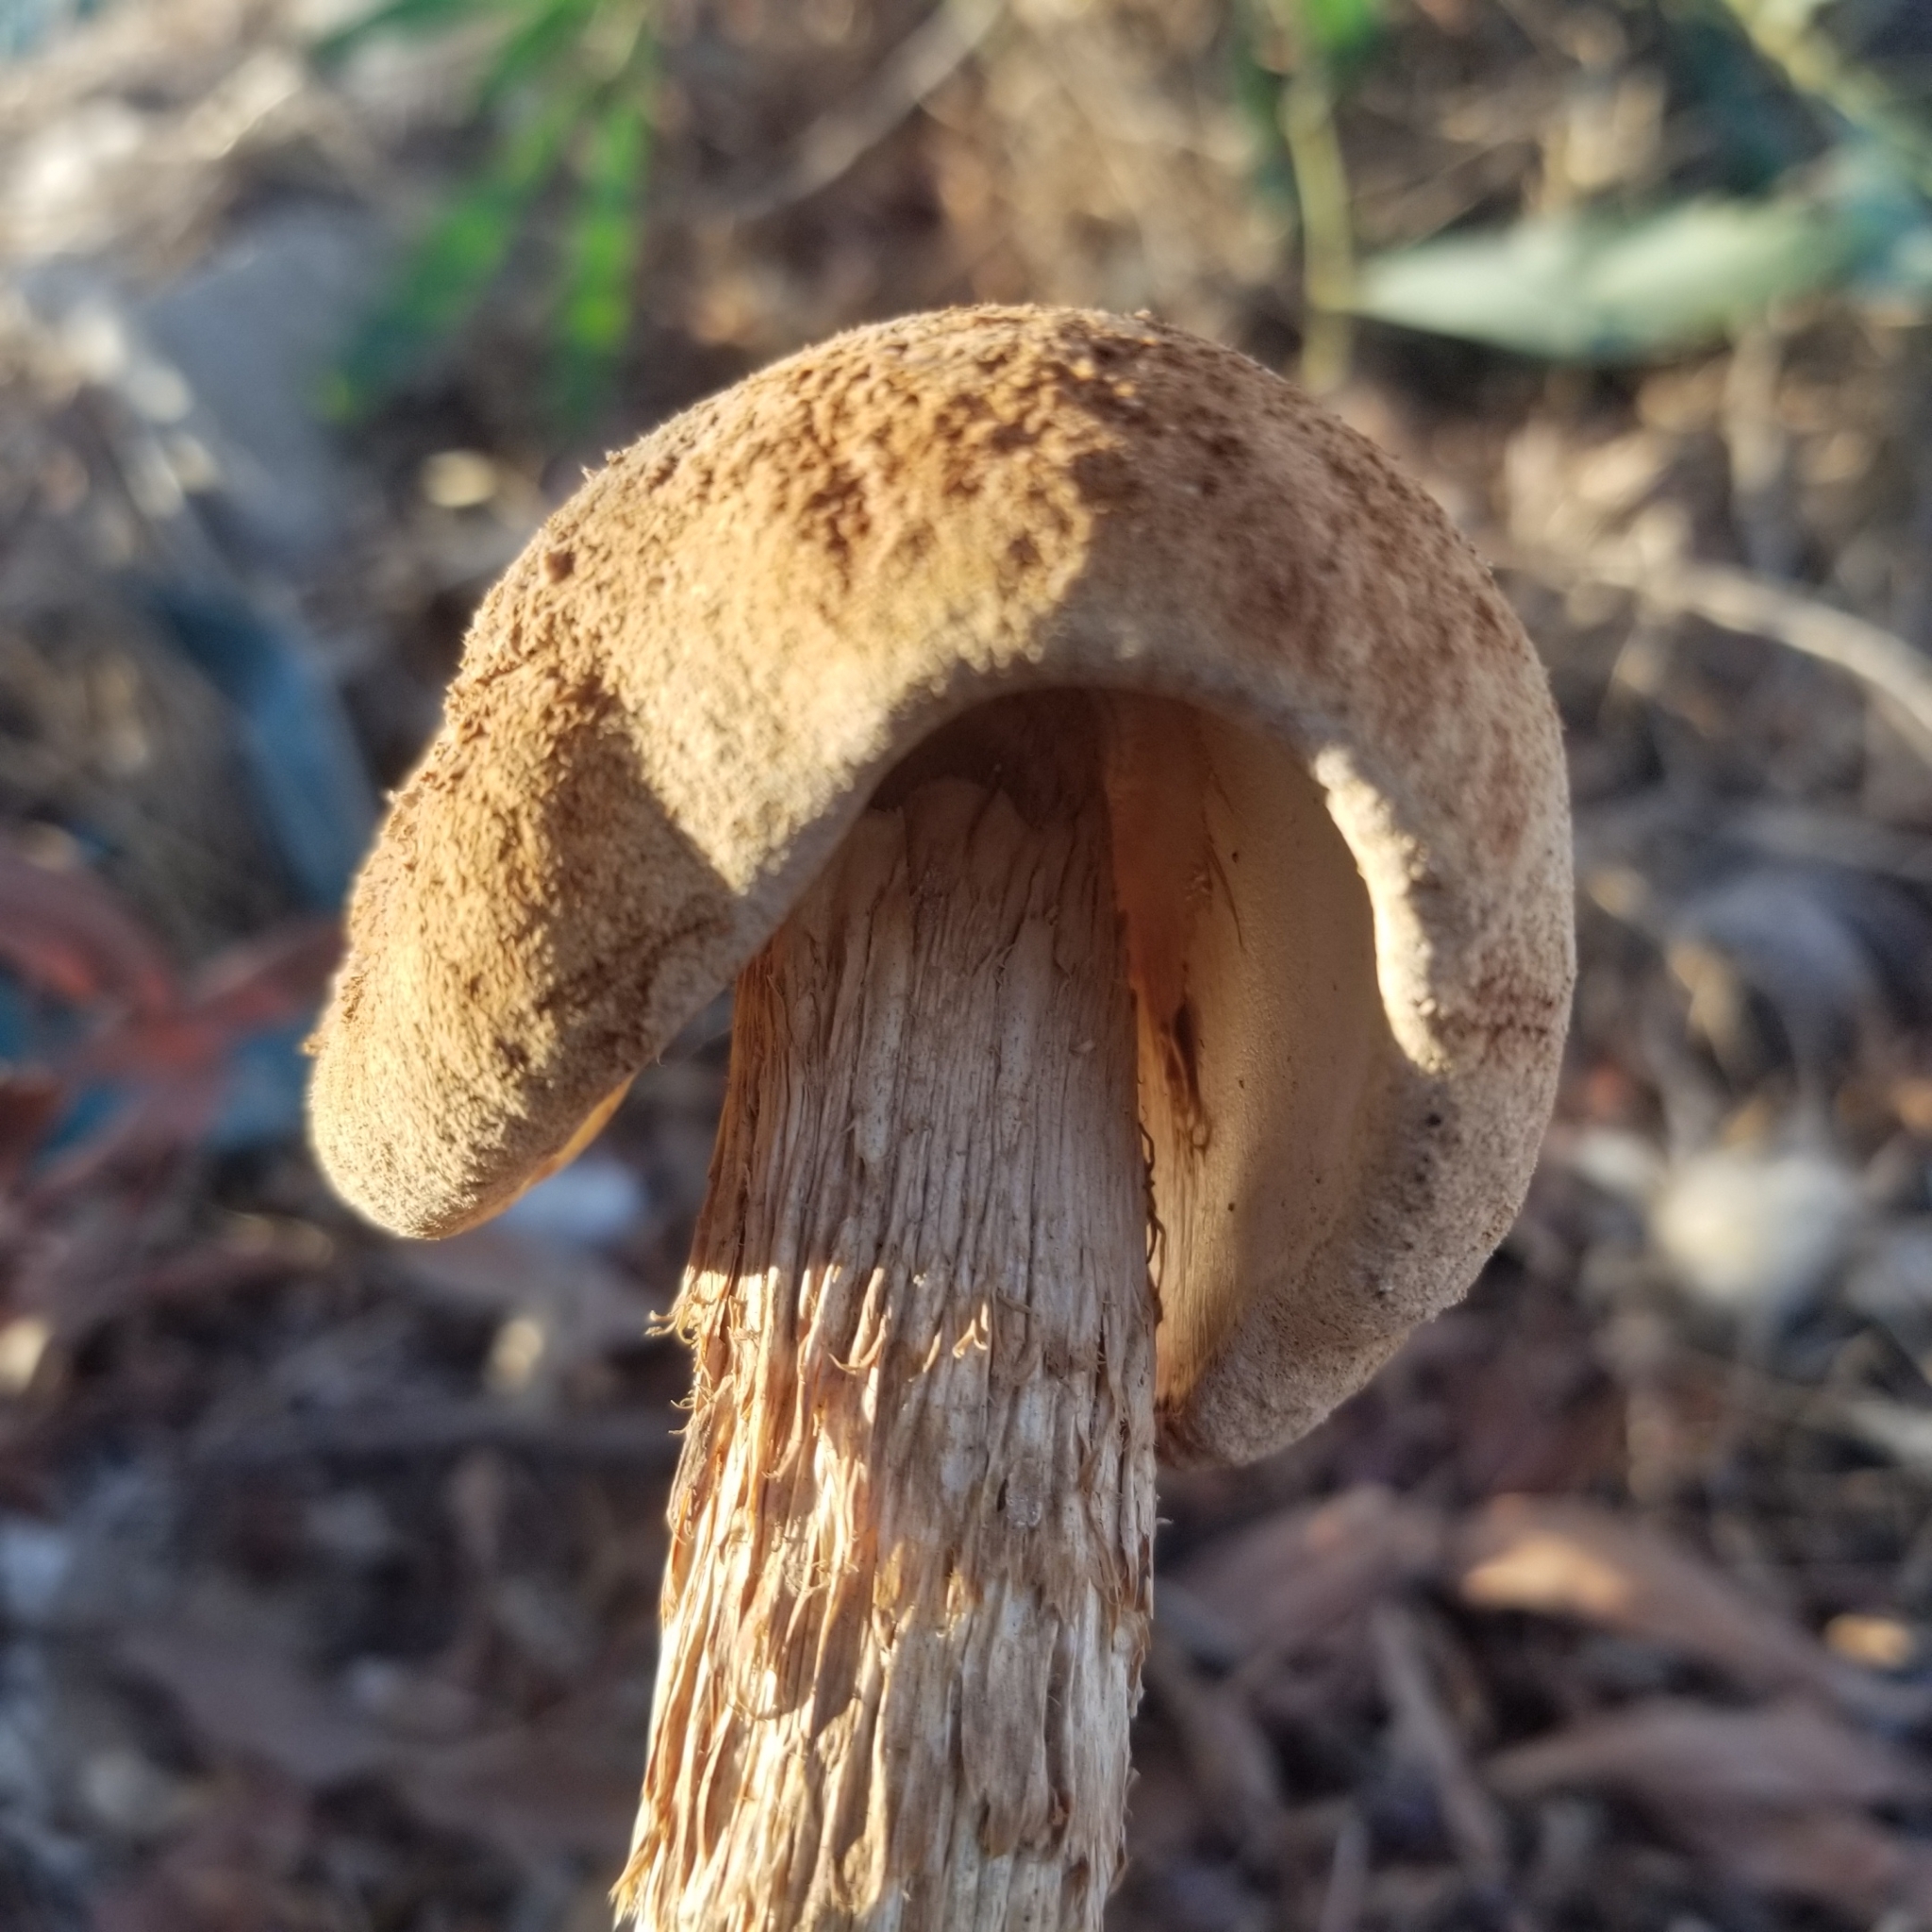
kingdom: Fungi
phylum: Basidiomycota
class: Agaricomycetes
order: Agaricales
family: Agaricaceae
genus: Battarrea
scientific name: Battarrea phalloides
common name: Sandy stiltball
